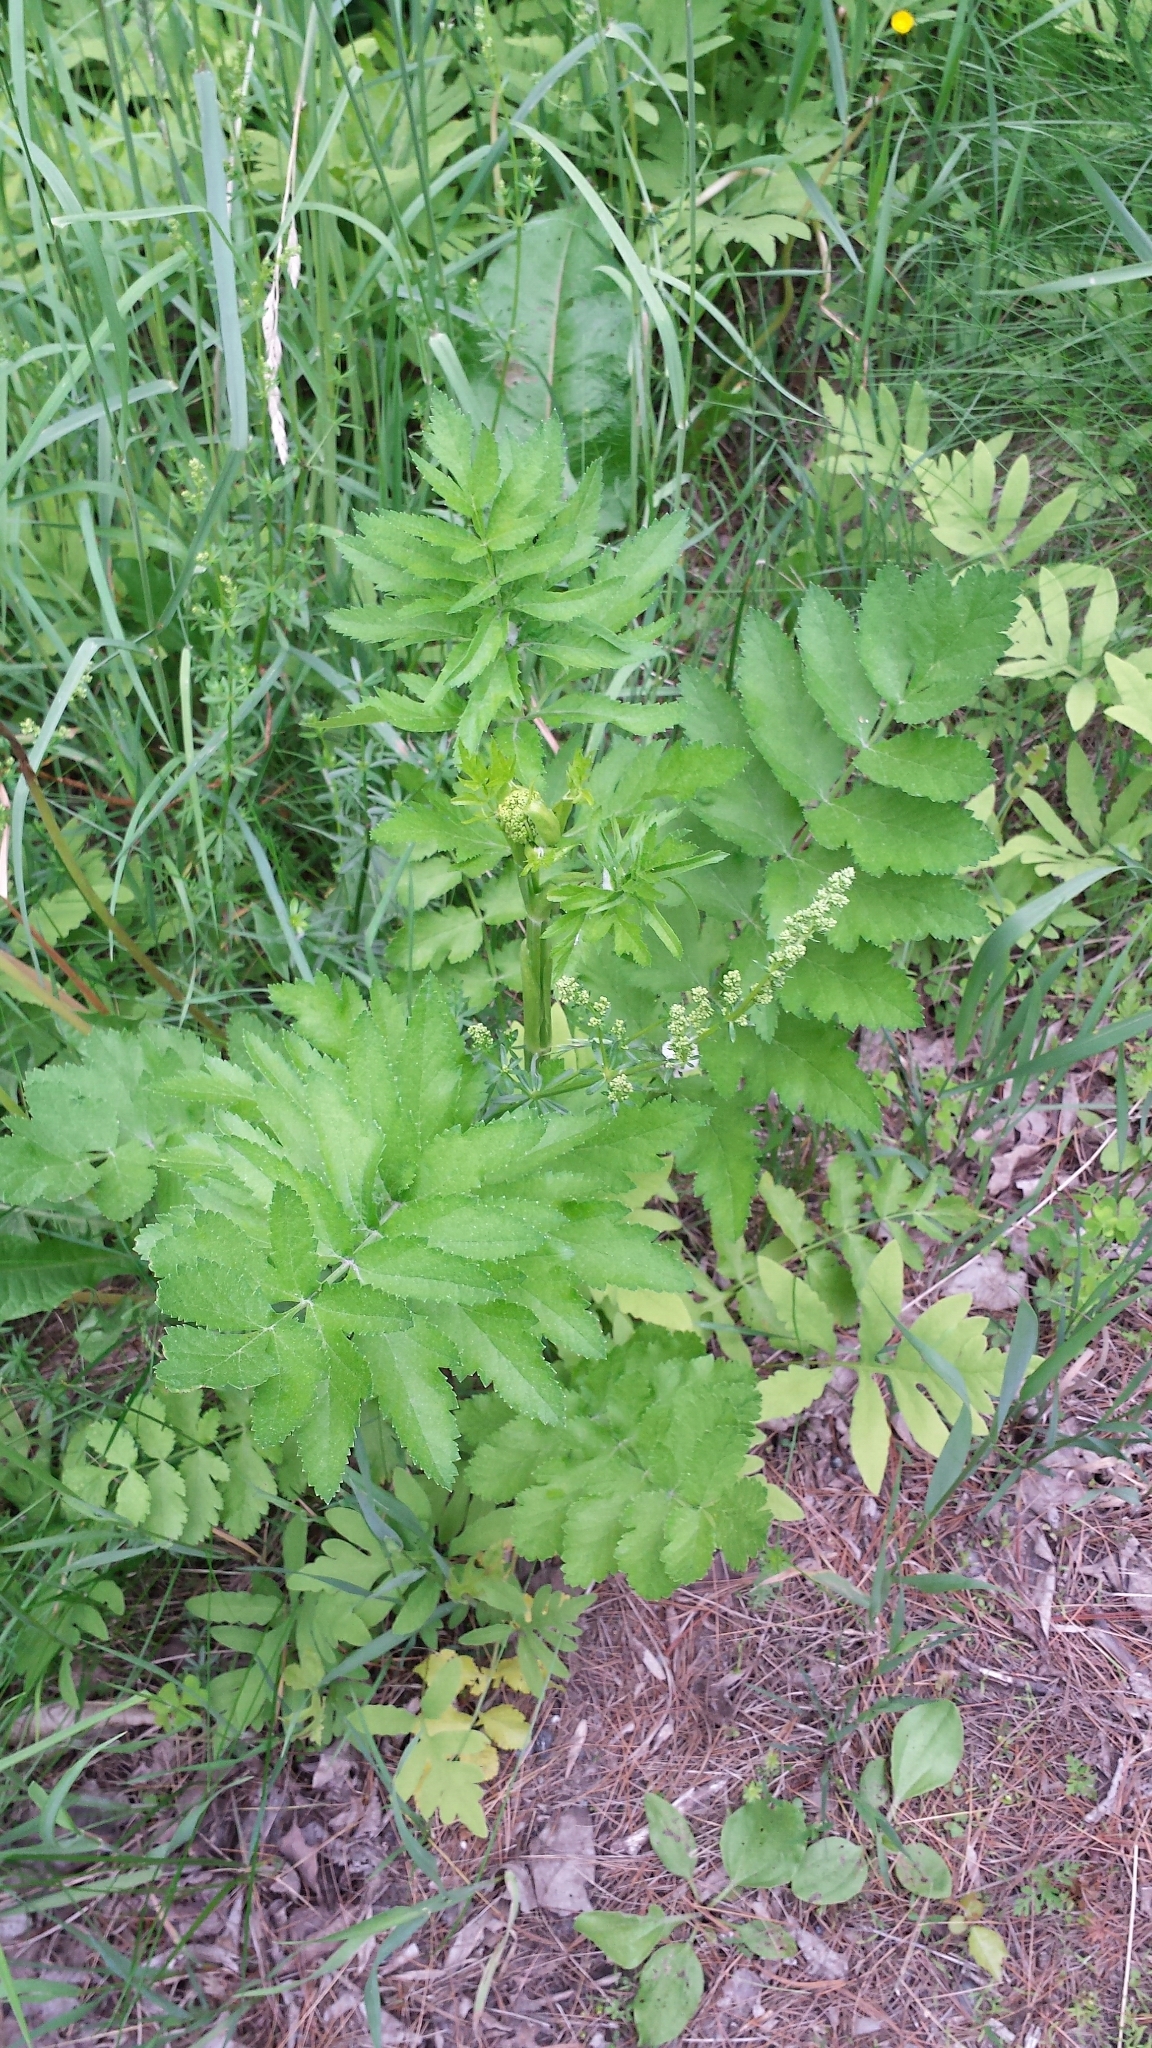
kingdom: Plantae
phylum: Tracheophyta
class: Magnoliopsida
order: Apiales
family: Apiaceae
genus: Pastinaca
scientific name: Pastinaca sativa
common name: Wild parsnip
